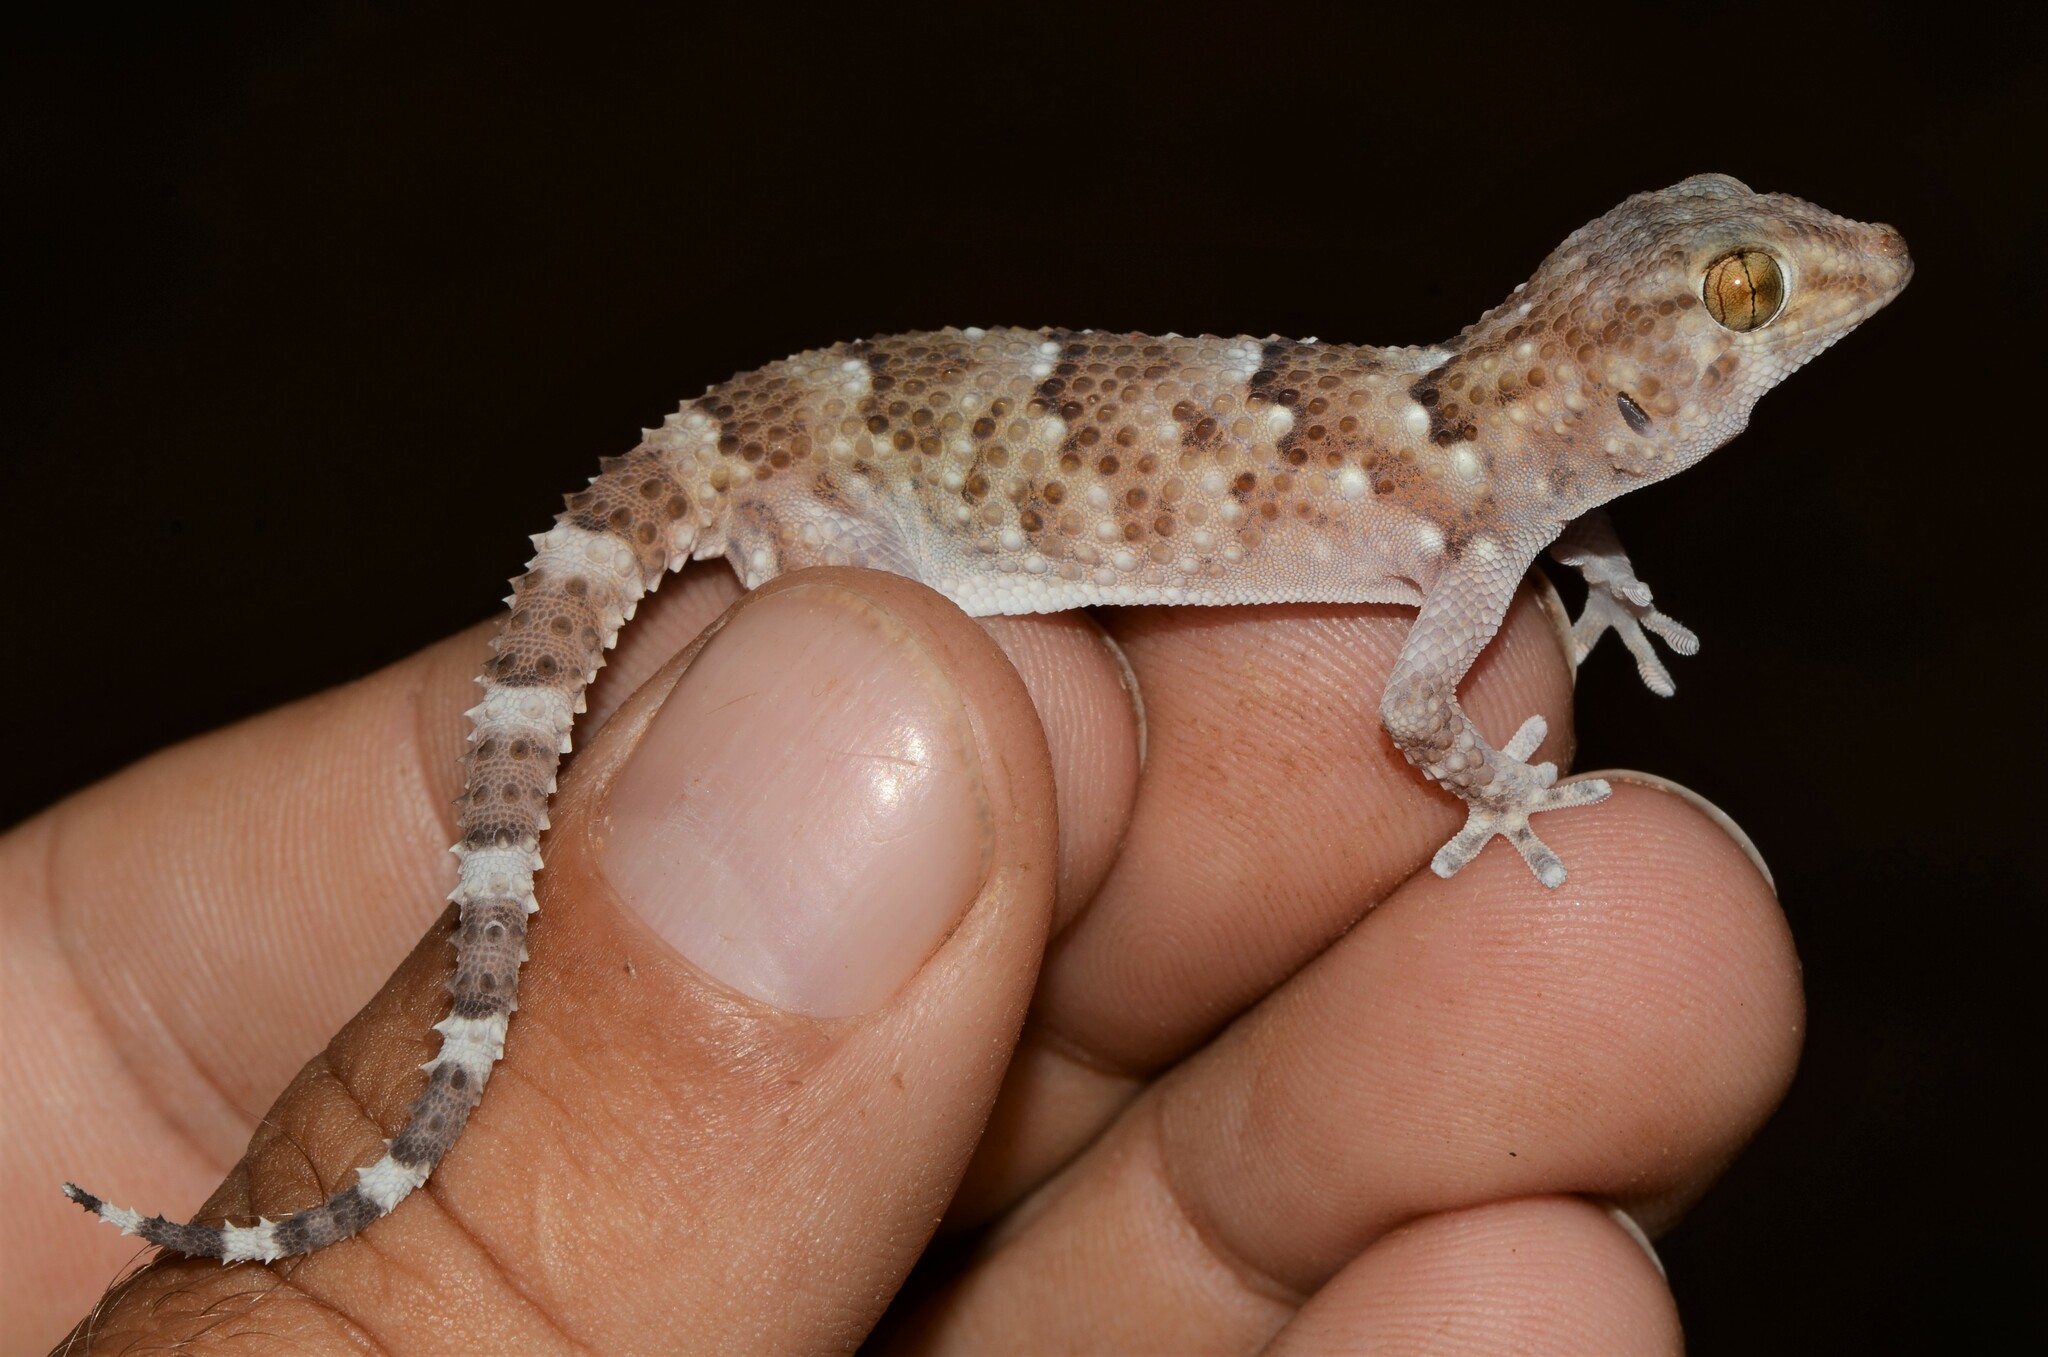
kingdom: Animalia
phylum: Chordata
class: Squamata
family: Gekkonidae
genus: Chondrodactylus
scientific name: Chondrodactylus laevigatus
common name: Fischer's thick-toed gecko
